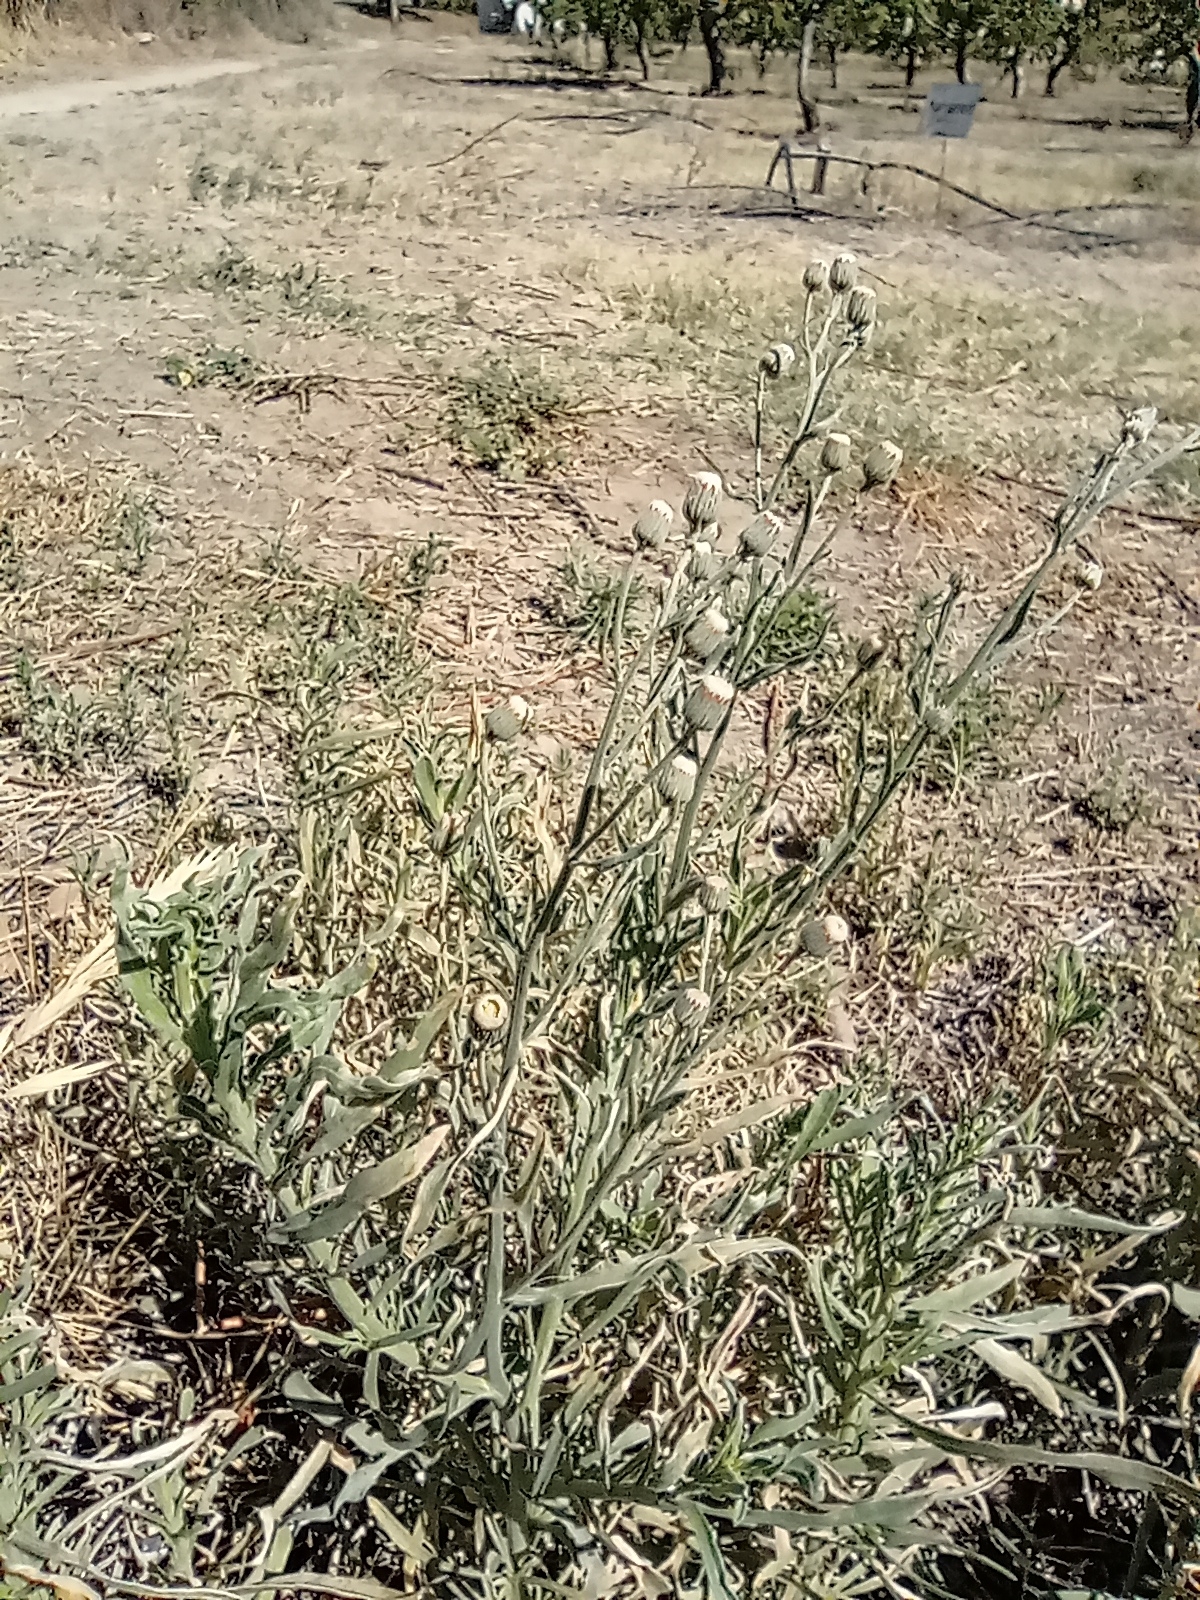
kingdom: Plantae
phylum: Tracheophyta
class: Magnoliopsida
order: Asterales
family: Asteraceae
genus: Erigeron
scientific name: Erigeron bonariensis
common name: Argentine fleabane
